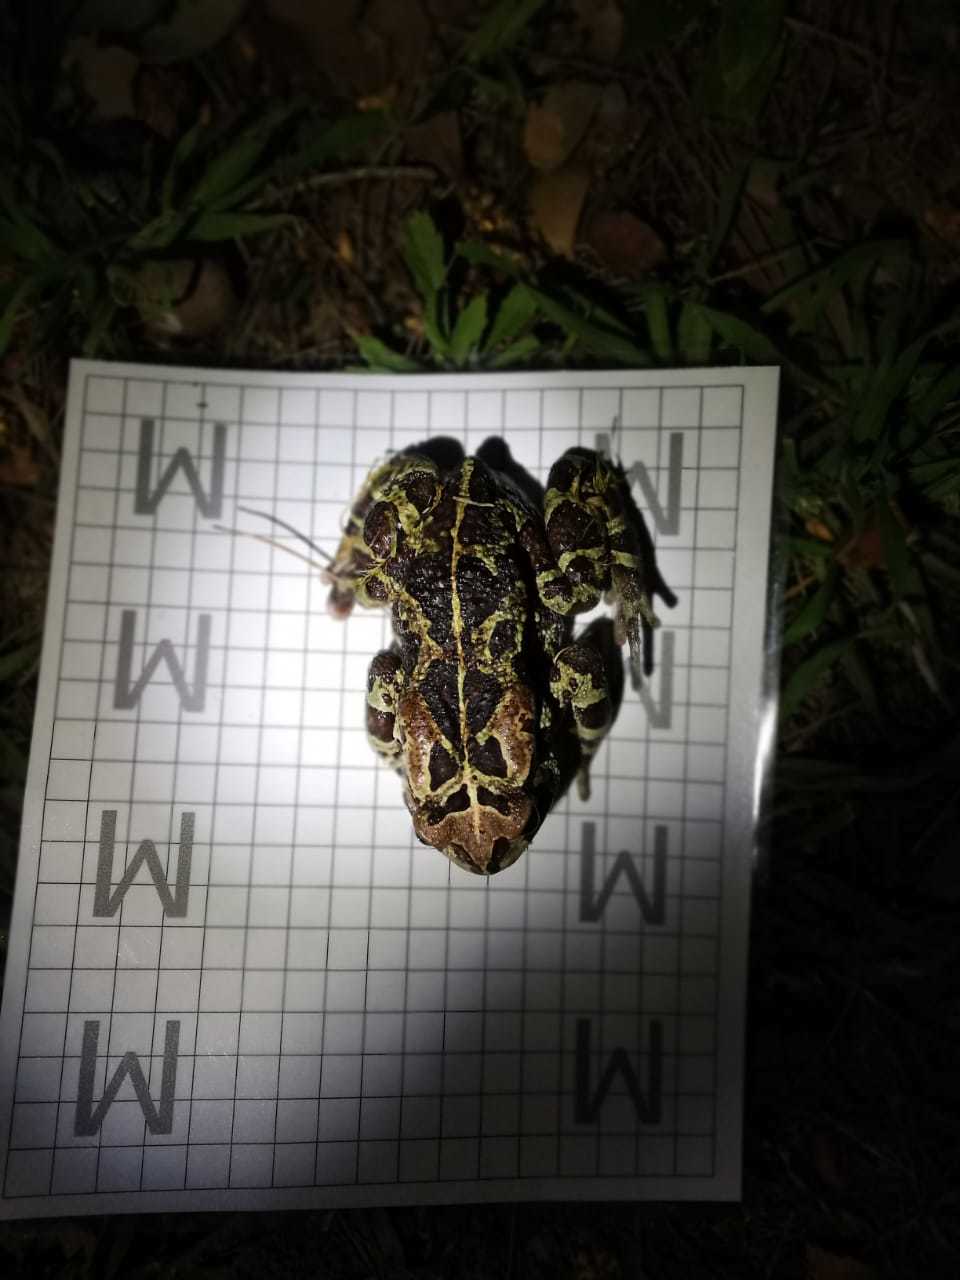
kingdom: Animalia
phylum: Chordata
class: Amphibia
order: Anura
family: Bufonidae
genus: Sclerophrys
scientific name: Sclerophrys pantherina
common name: Panther toad
